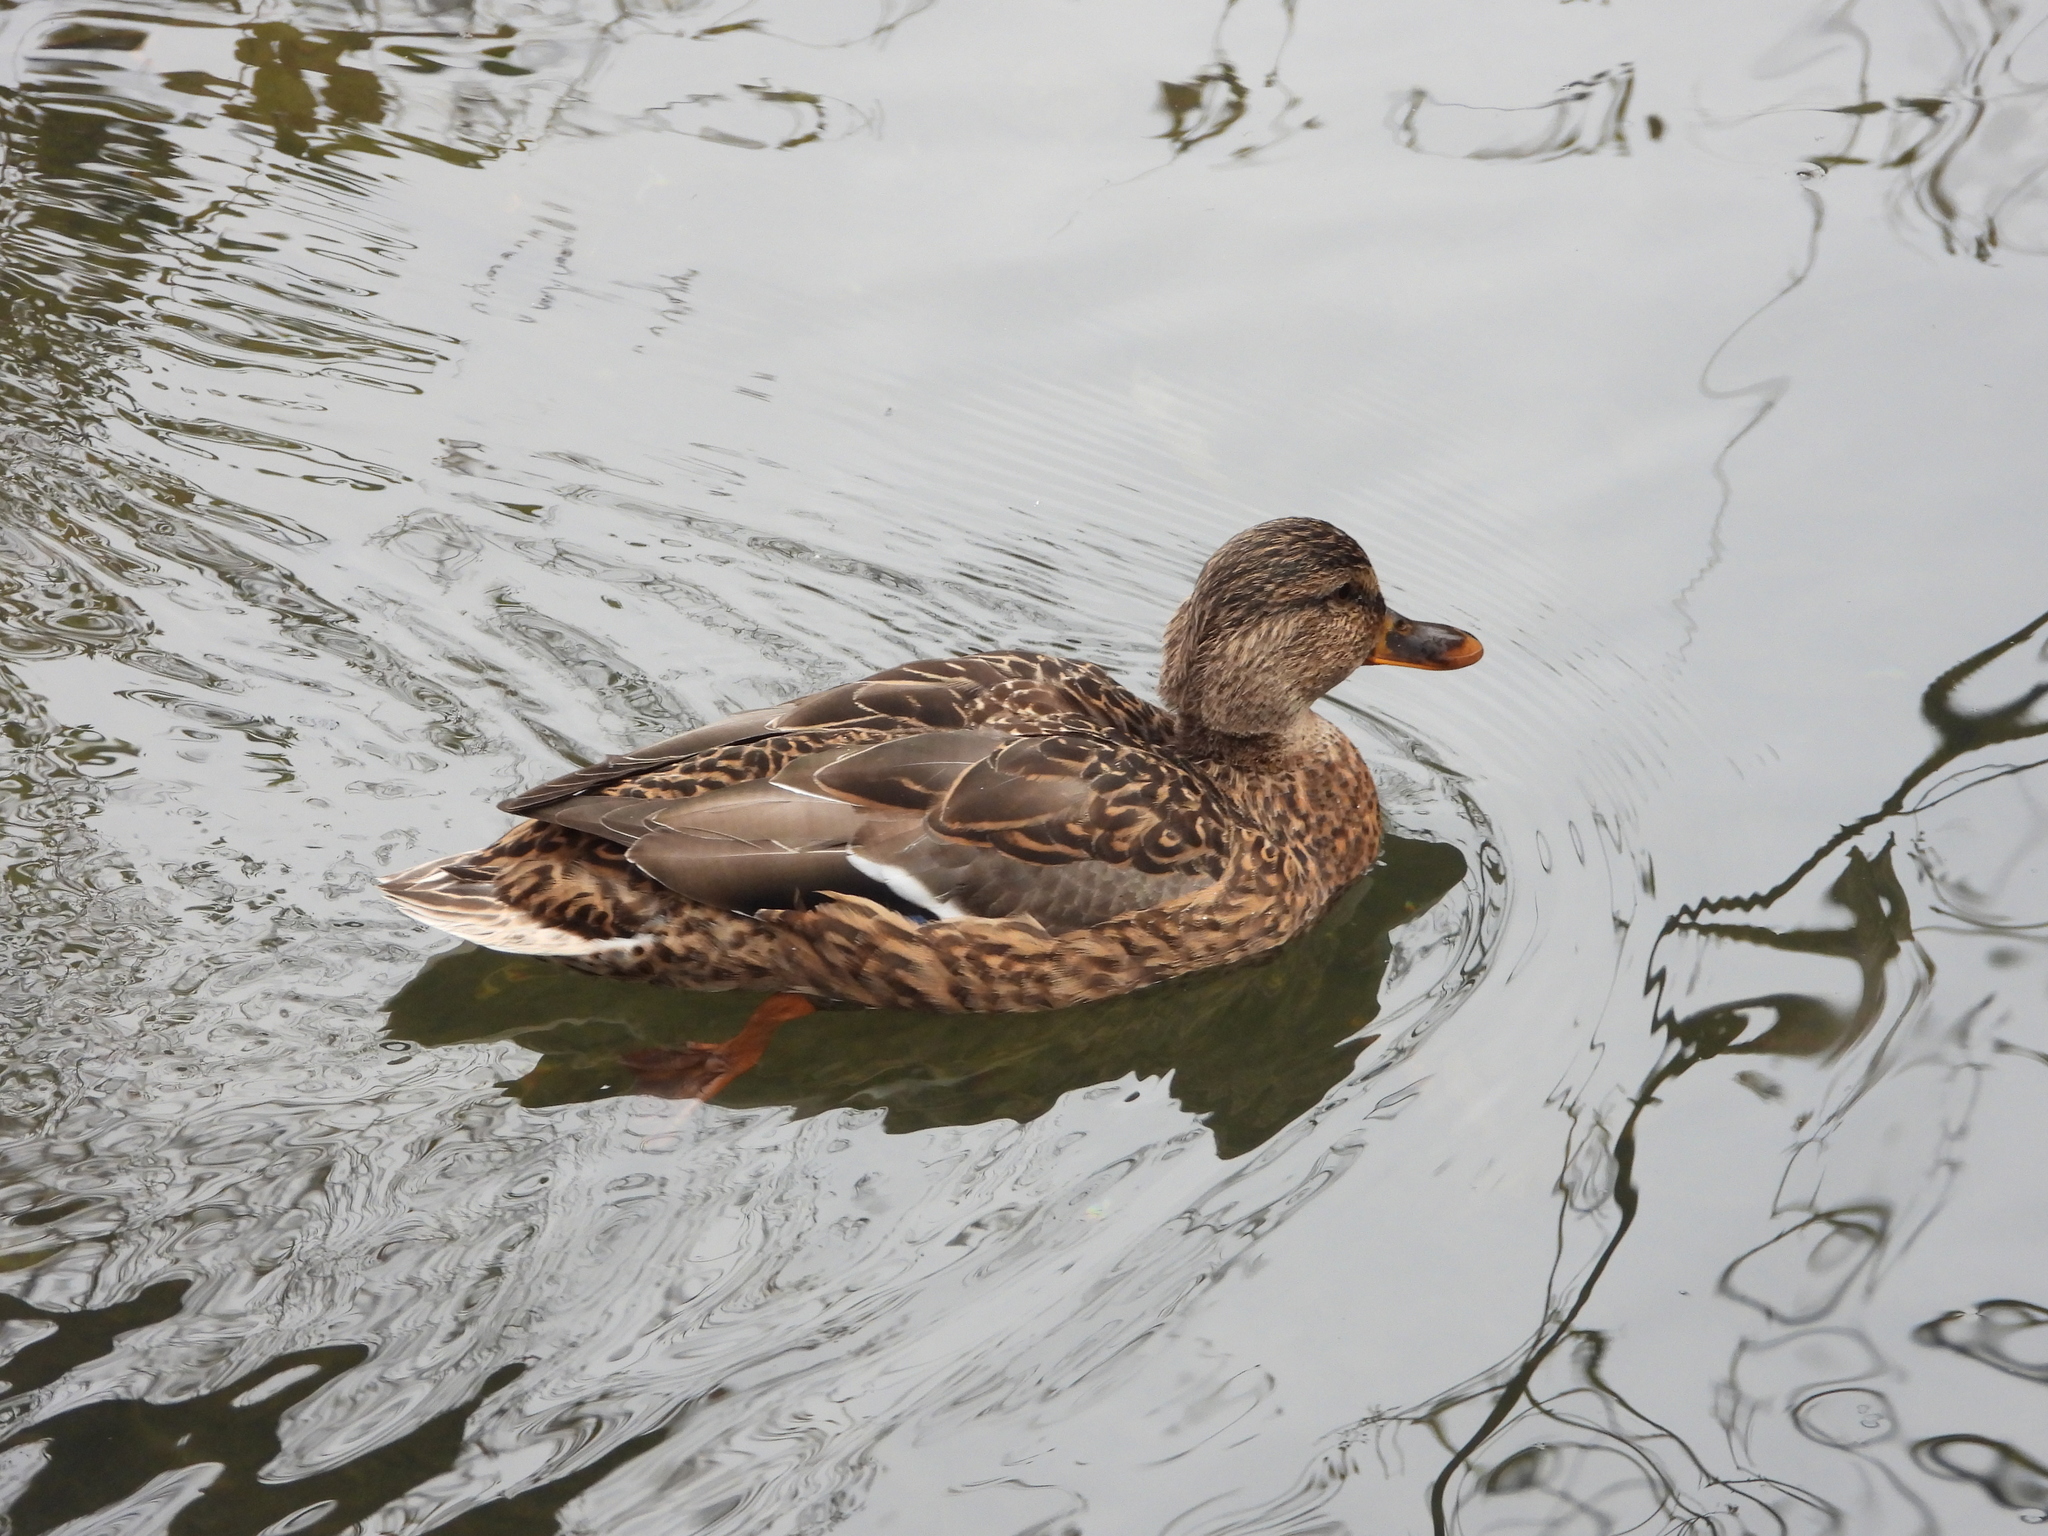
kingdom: Animalia
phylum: Chordata
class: Aves
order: Anseriformes
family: Anatidae
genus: Anas
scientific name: Anas platyrhynchos
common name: Mallard
